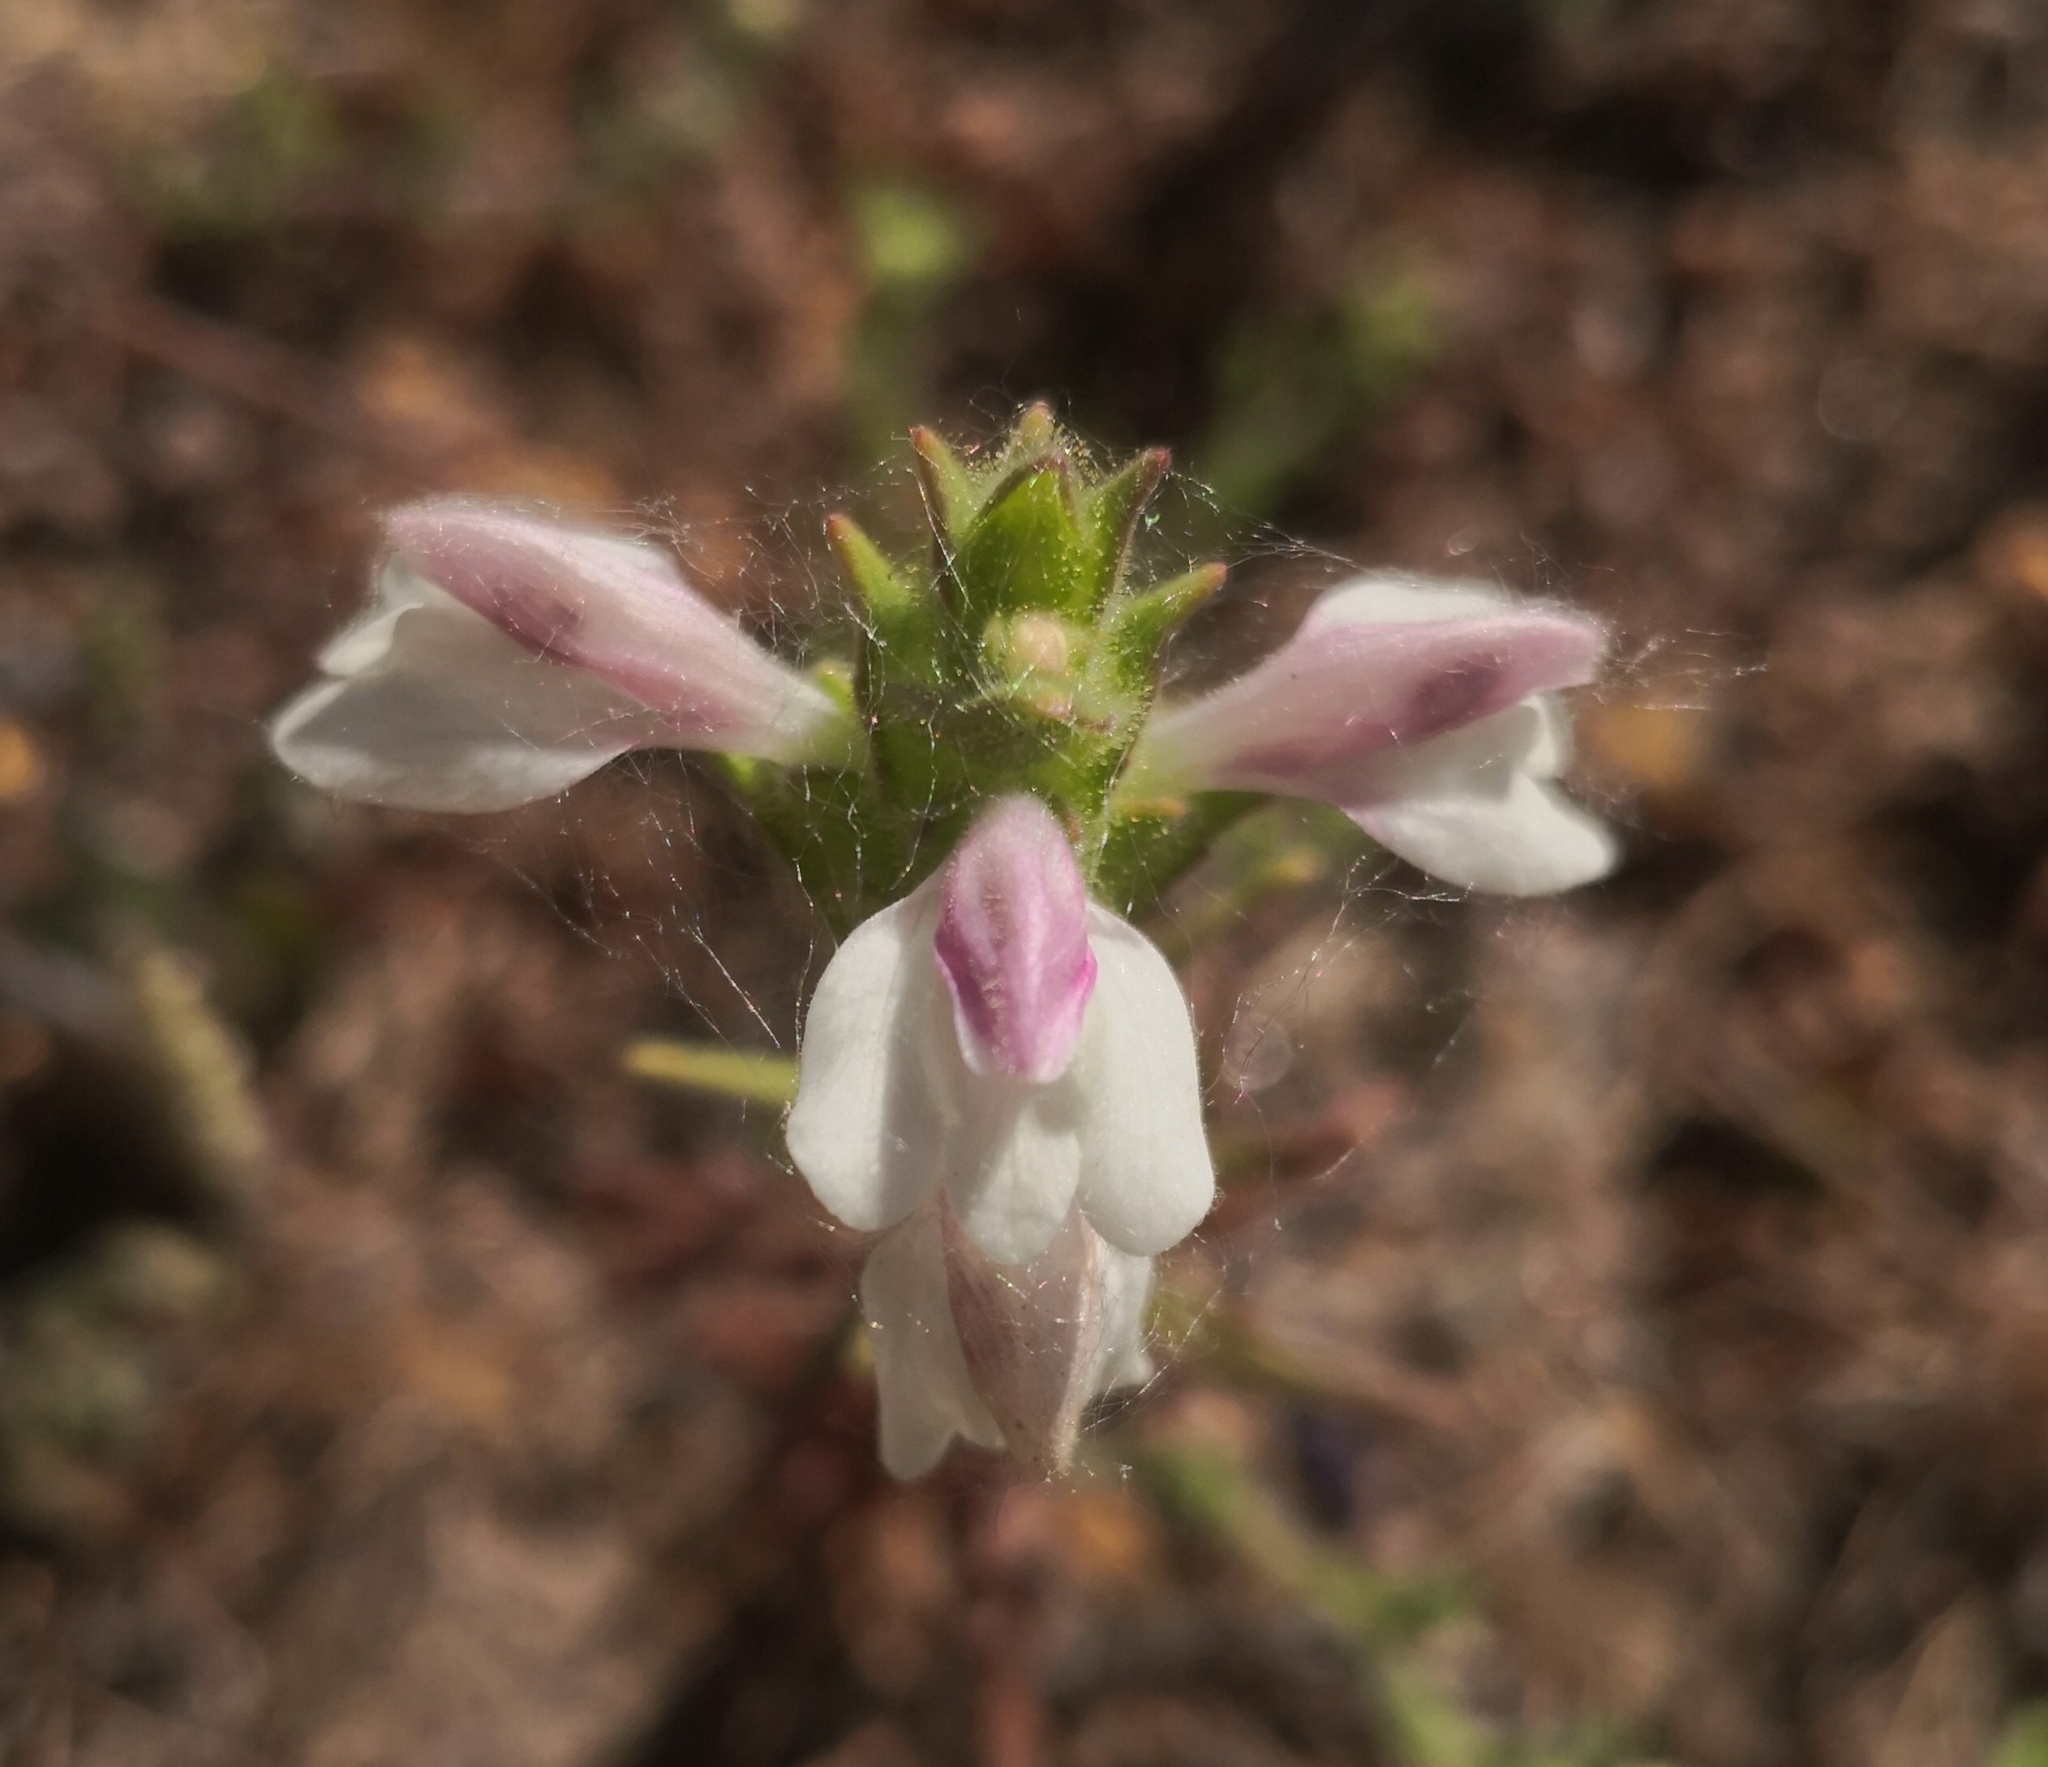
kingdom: Plantae
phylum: Tracheophyta
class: Magnoliopsida
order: Lamiales
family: Orobanchaceae
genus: Bellardia
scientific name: Bellardia trixago
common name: Mediterranean lineseed
